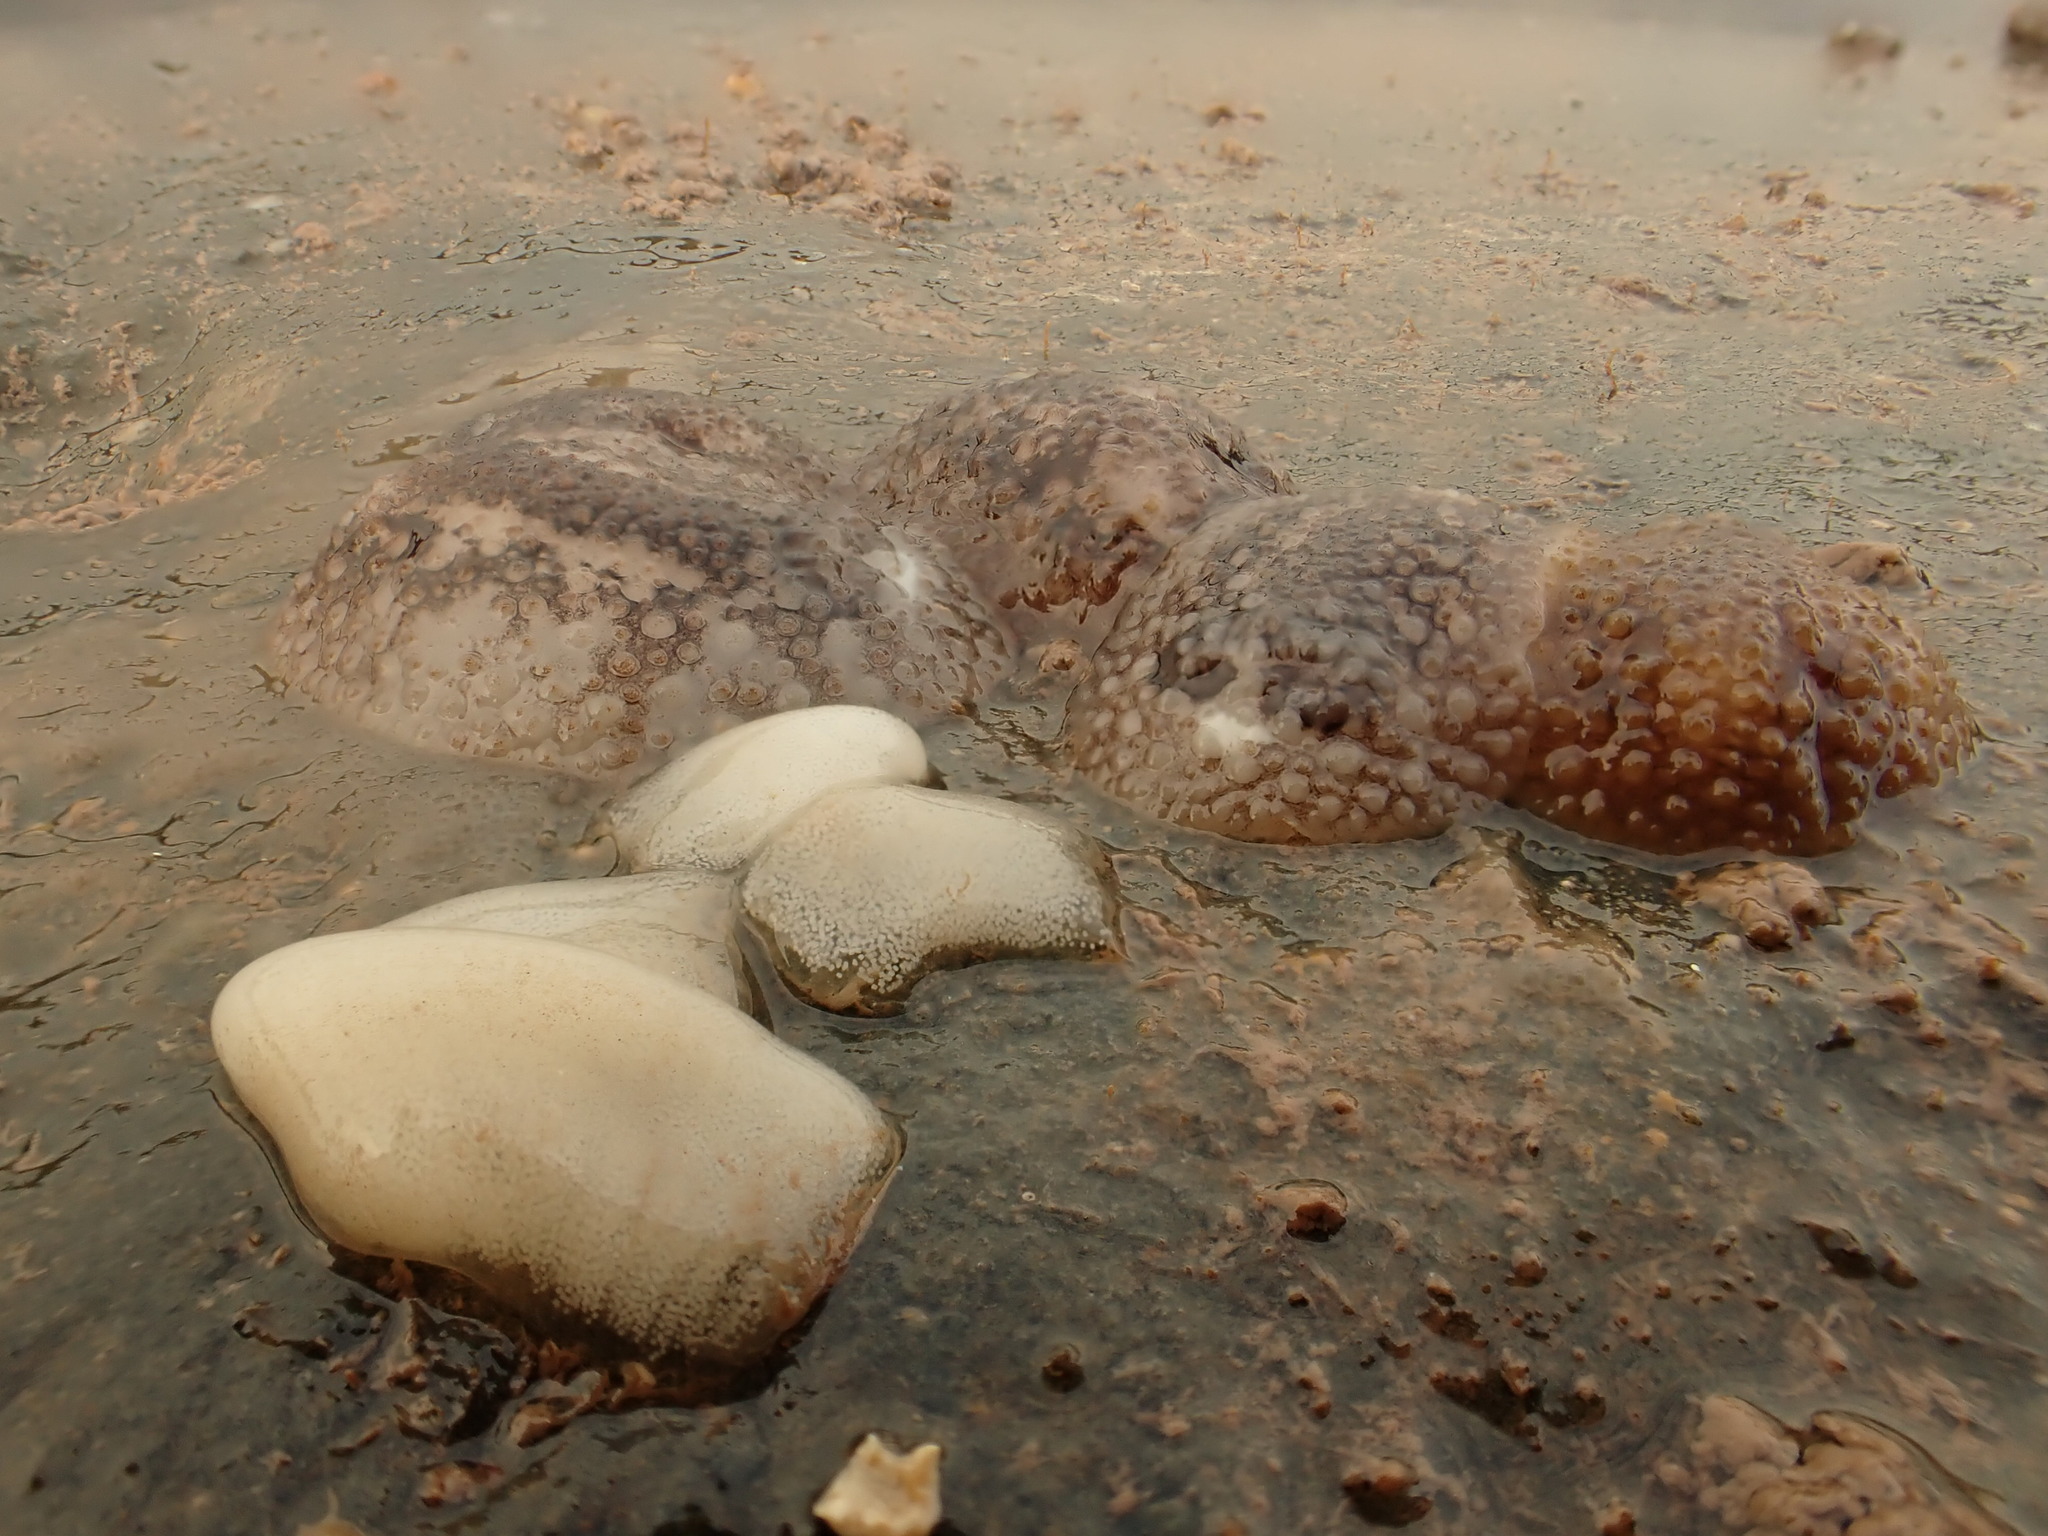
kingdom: Animalia
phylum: Mollusca
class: Gastropoda
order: Nudibranchia
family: Onchidorididae
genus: Onchidoris
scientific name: Onchidoris bilamellata
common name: Barnacle-eating onchidoris
